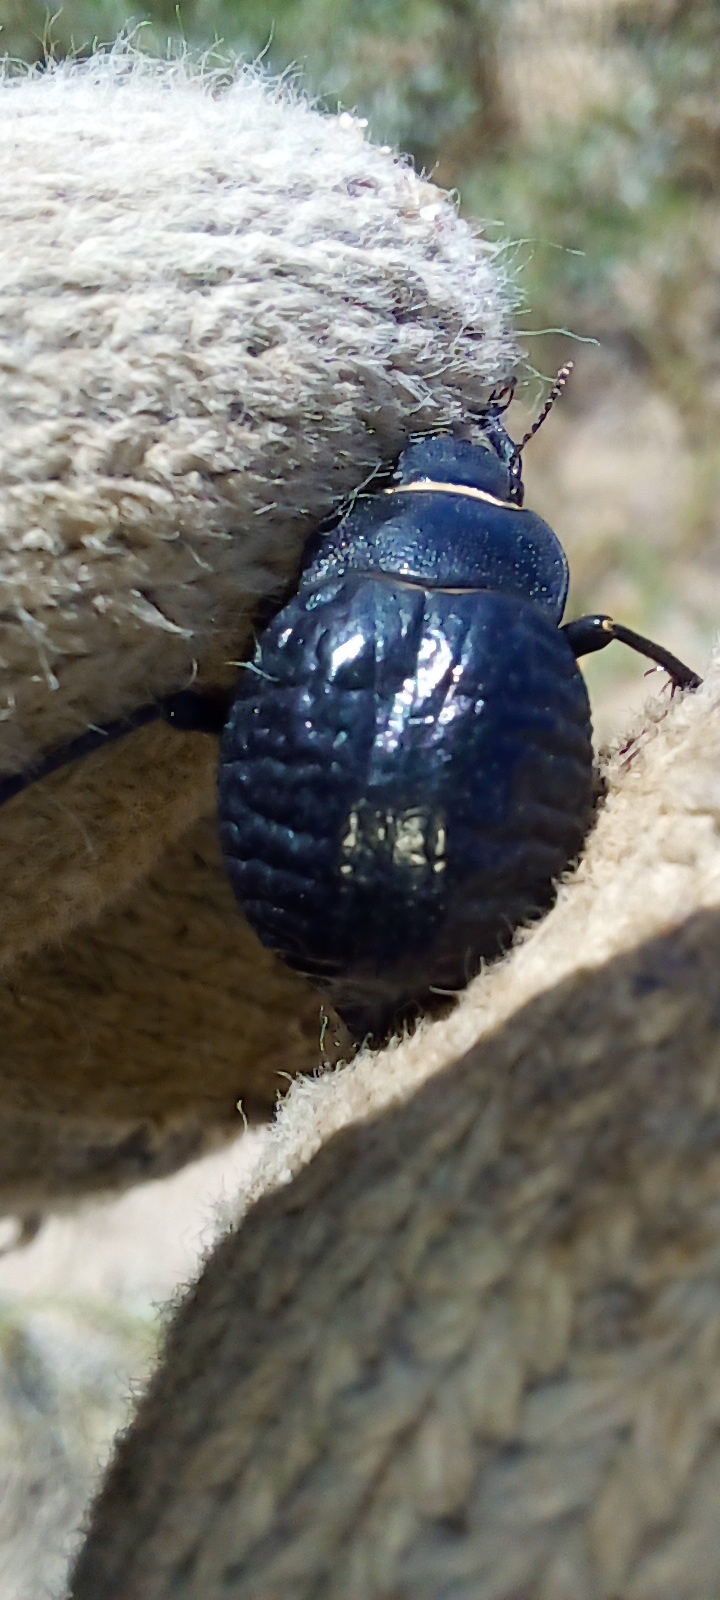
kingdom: Animalia
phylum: Arthropoda
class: Insecta
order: Coleoptera
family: Tenebrionidae
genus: Nyctelia
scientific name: Nyctelia
